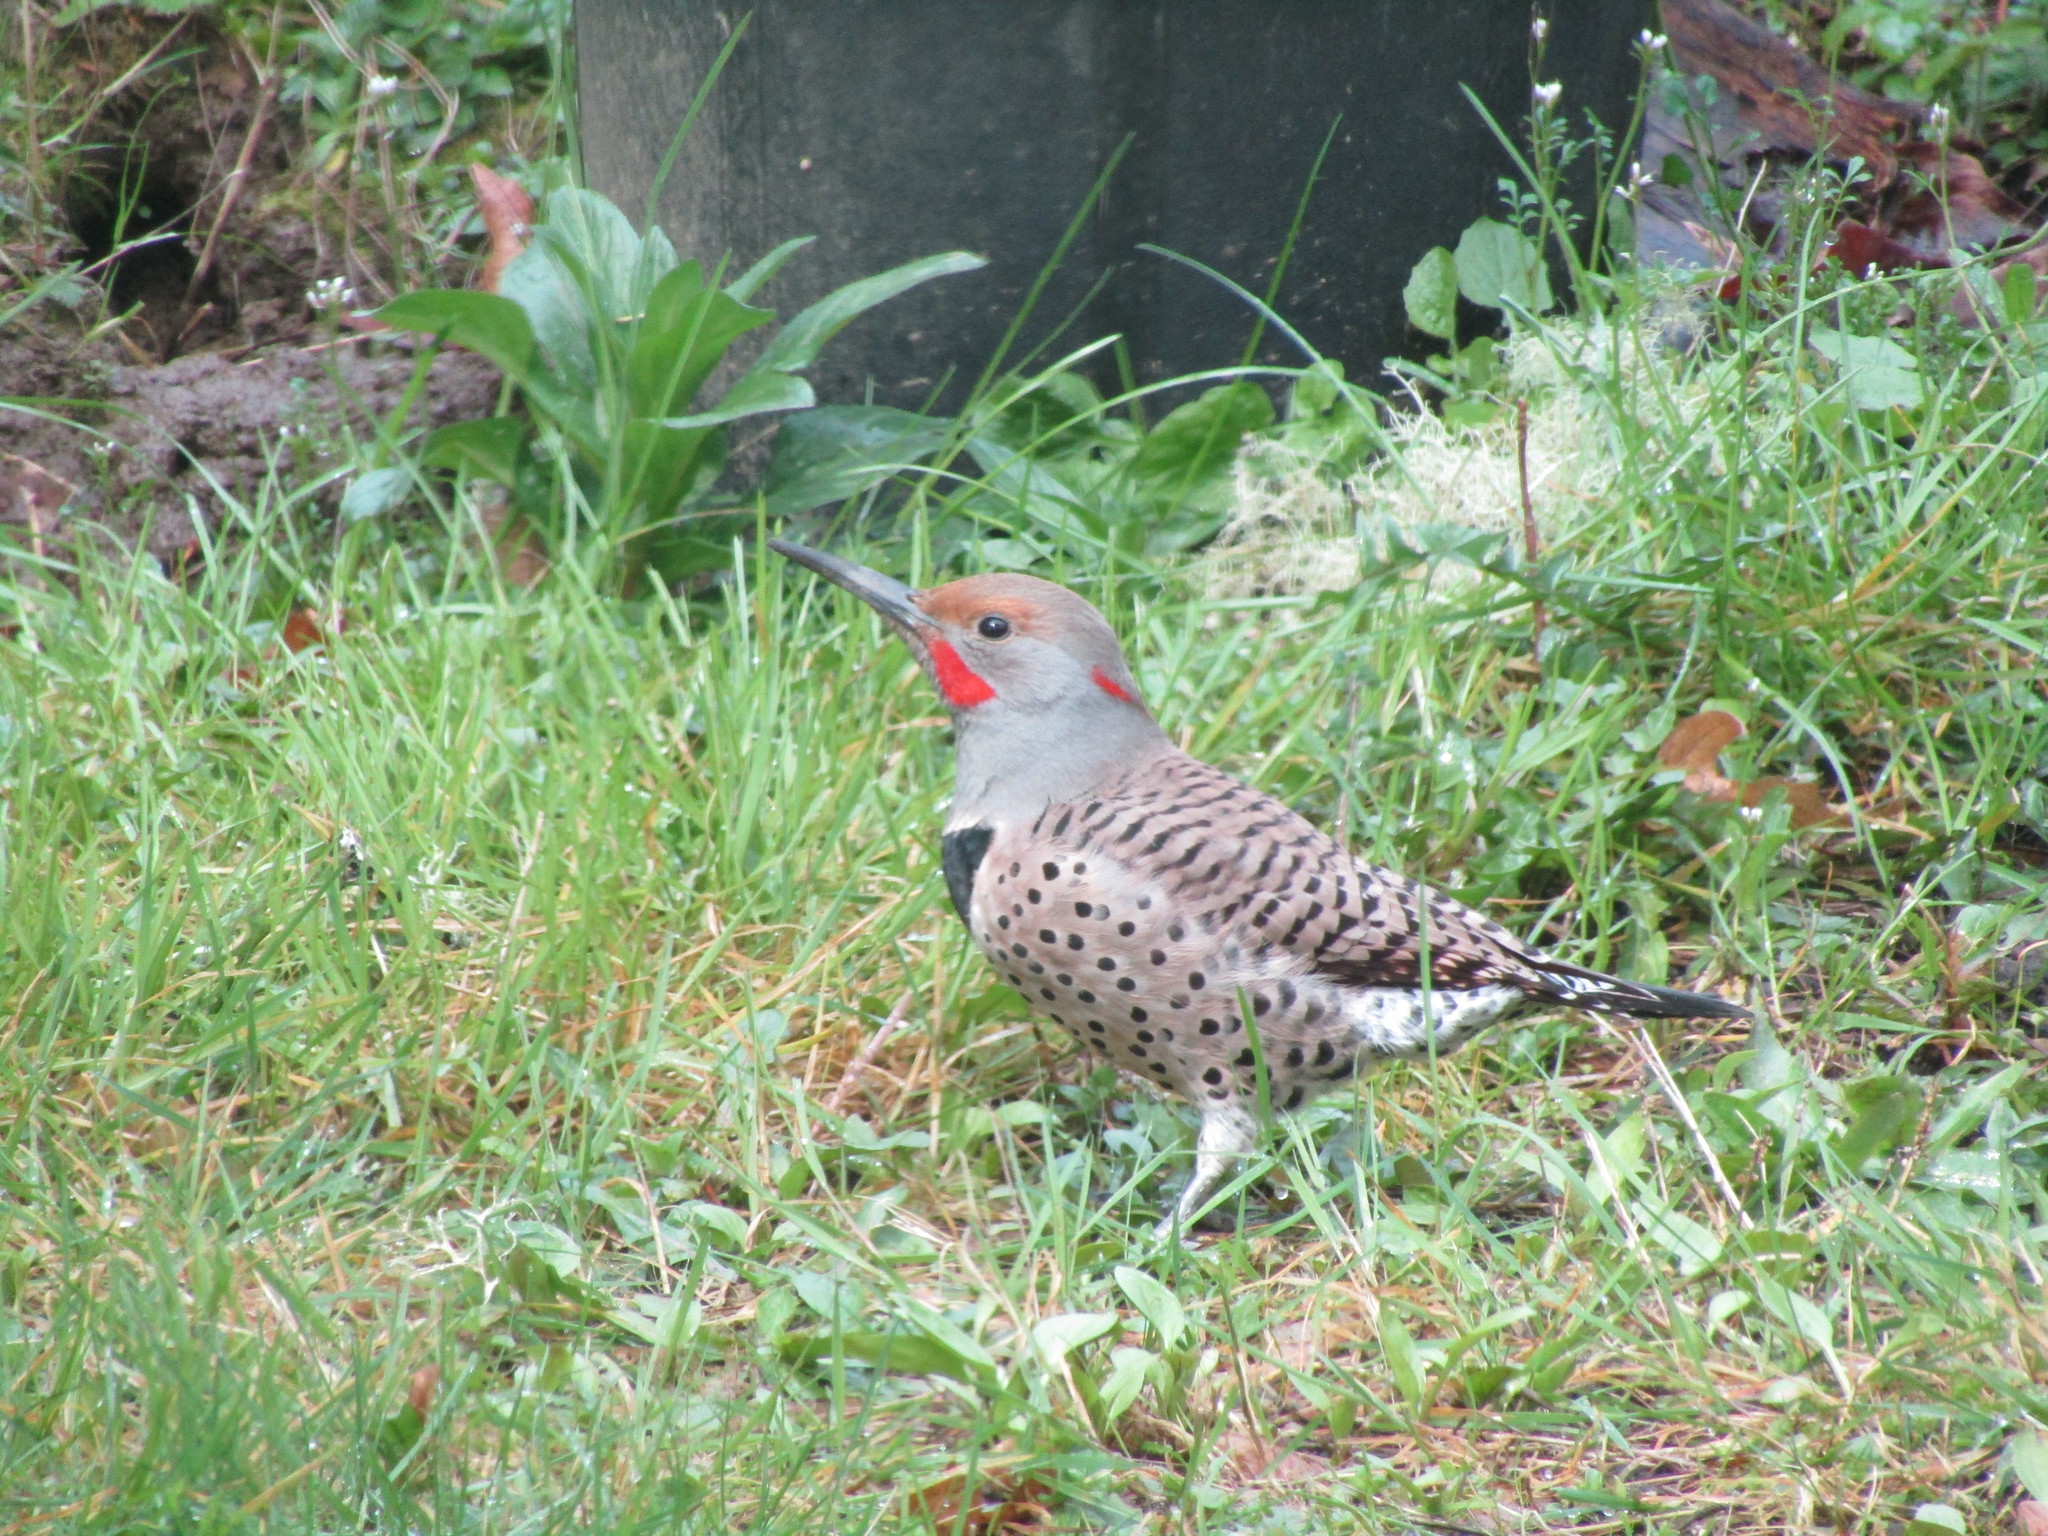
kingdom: Animalia
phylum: Chordata
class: Aves
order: Piciformes
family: Picidae
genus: Colaptes
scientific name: Colaptes auratus
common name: Northern flicker
